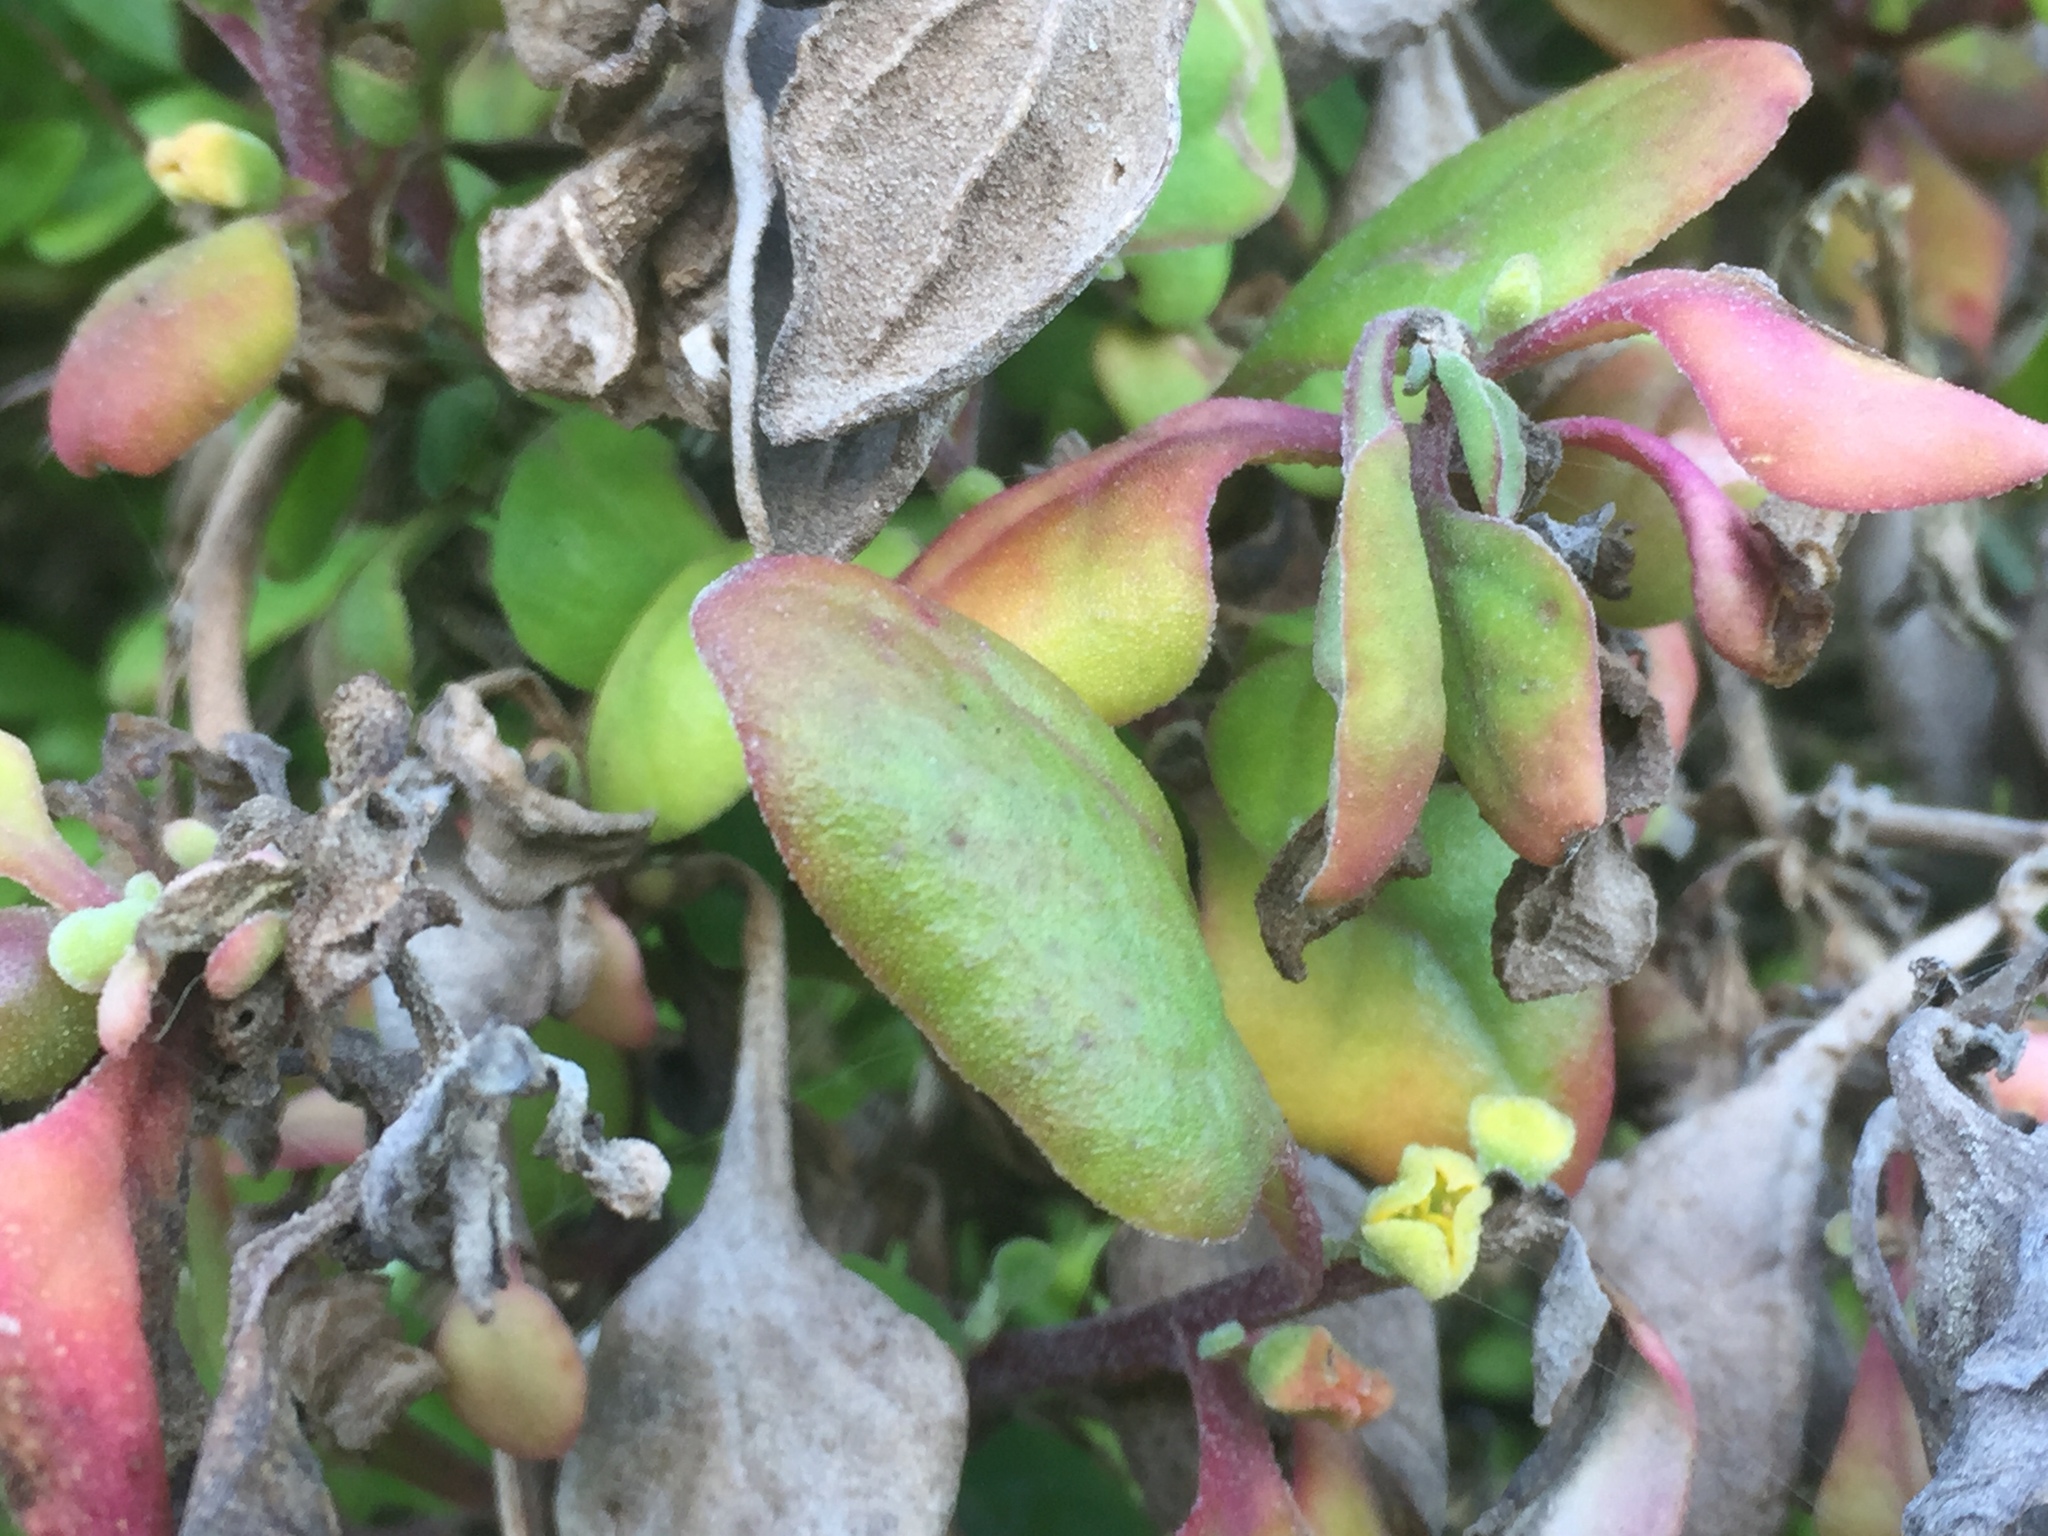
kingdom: Plantae
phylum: Tracheophyta
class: Magnoliopsida
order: Caryophyllales
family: Aizoaceae
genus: Tetragonia
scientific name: Tetragonia implexicoma
